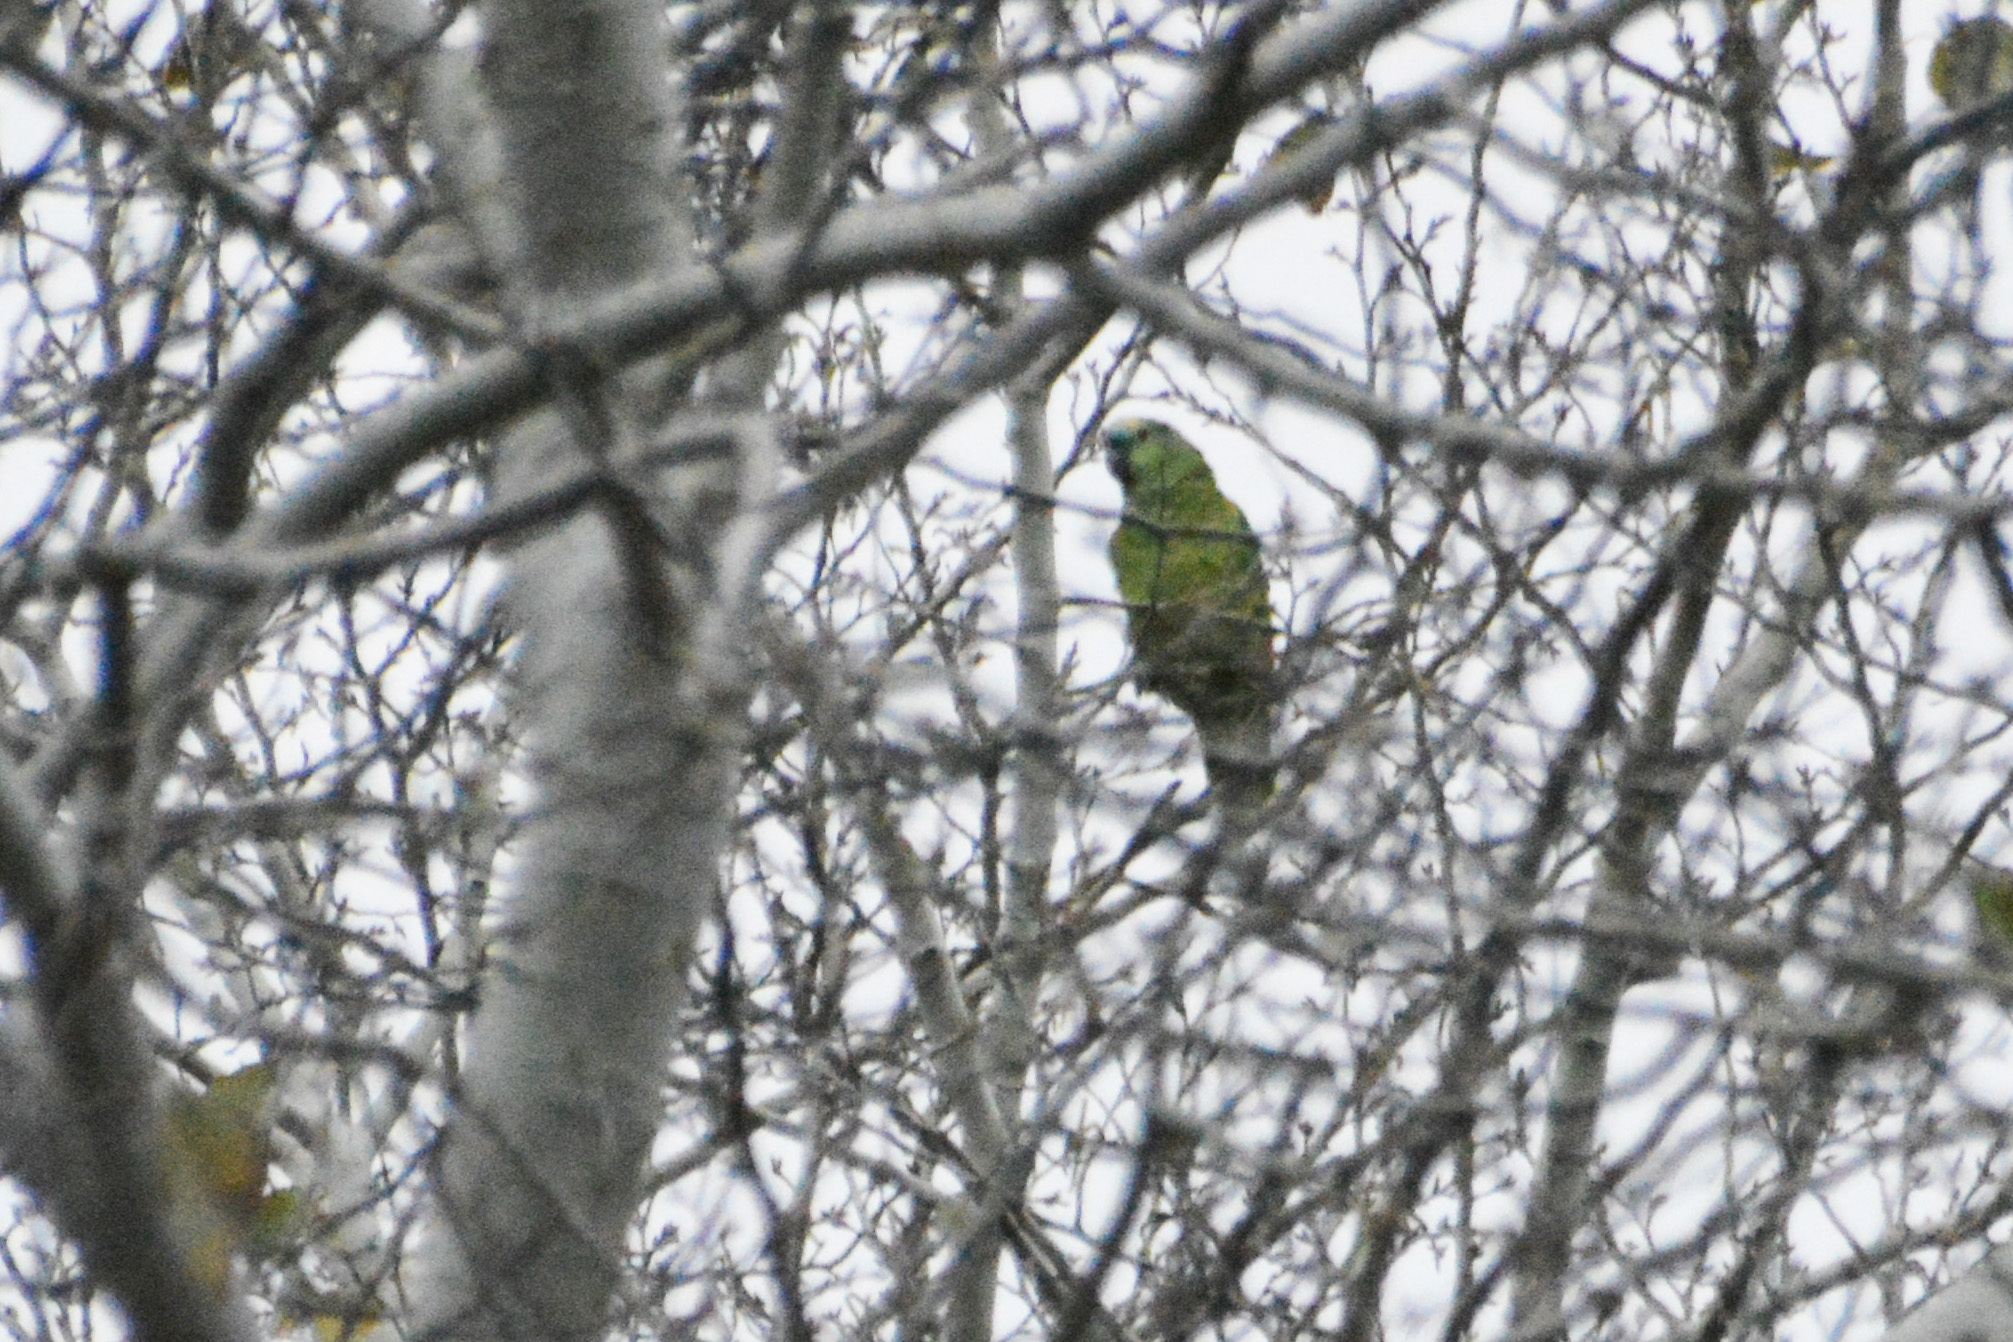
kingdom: Animalia
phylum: Chordata
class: Aves
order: Psittaciformes
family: Psittacidae
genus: Amazona
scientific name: Amazona aestiva
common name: Turquoise-fronted amazon
